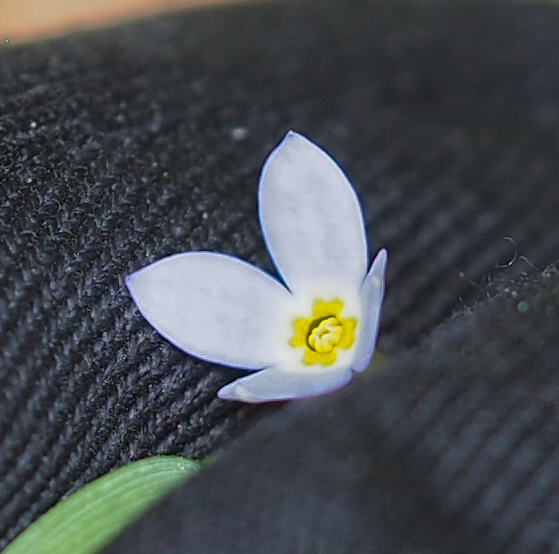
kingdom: Plantae
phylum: Tracheophyta
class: Magnoliopsida
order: Gentianales
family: Rubiaceae
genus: Houstonia
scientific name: Houstonia caerulea
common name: Bluets
